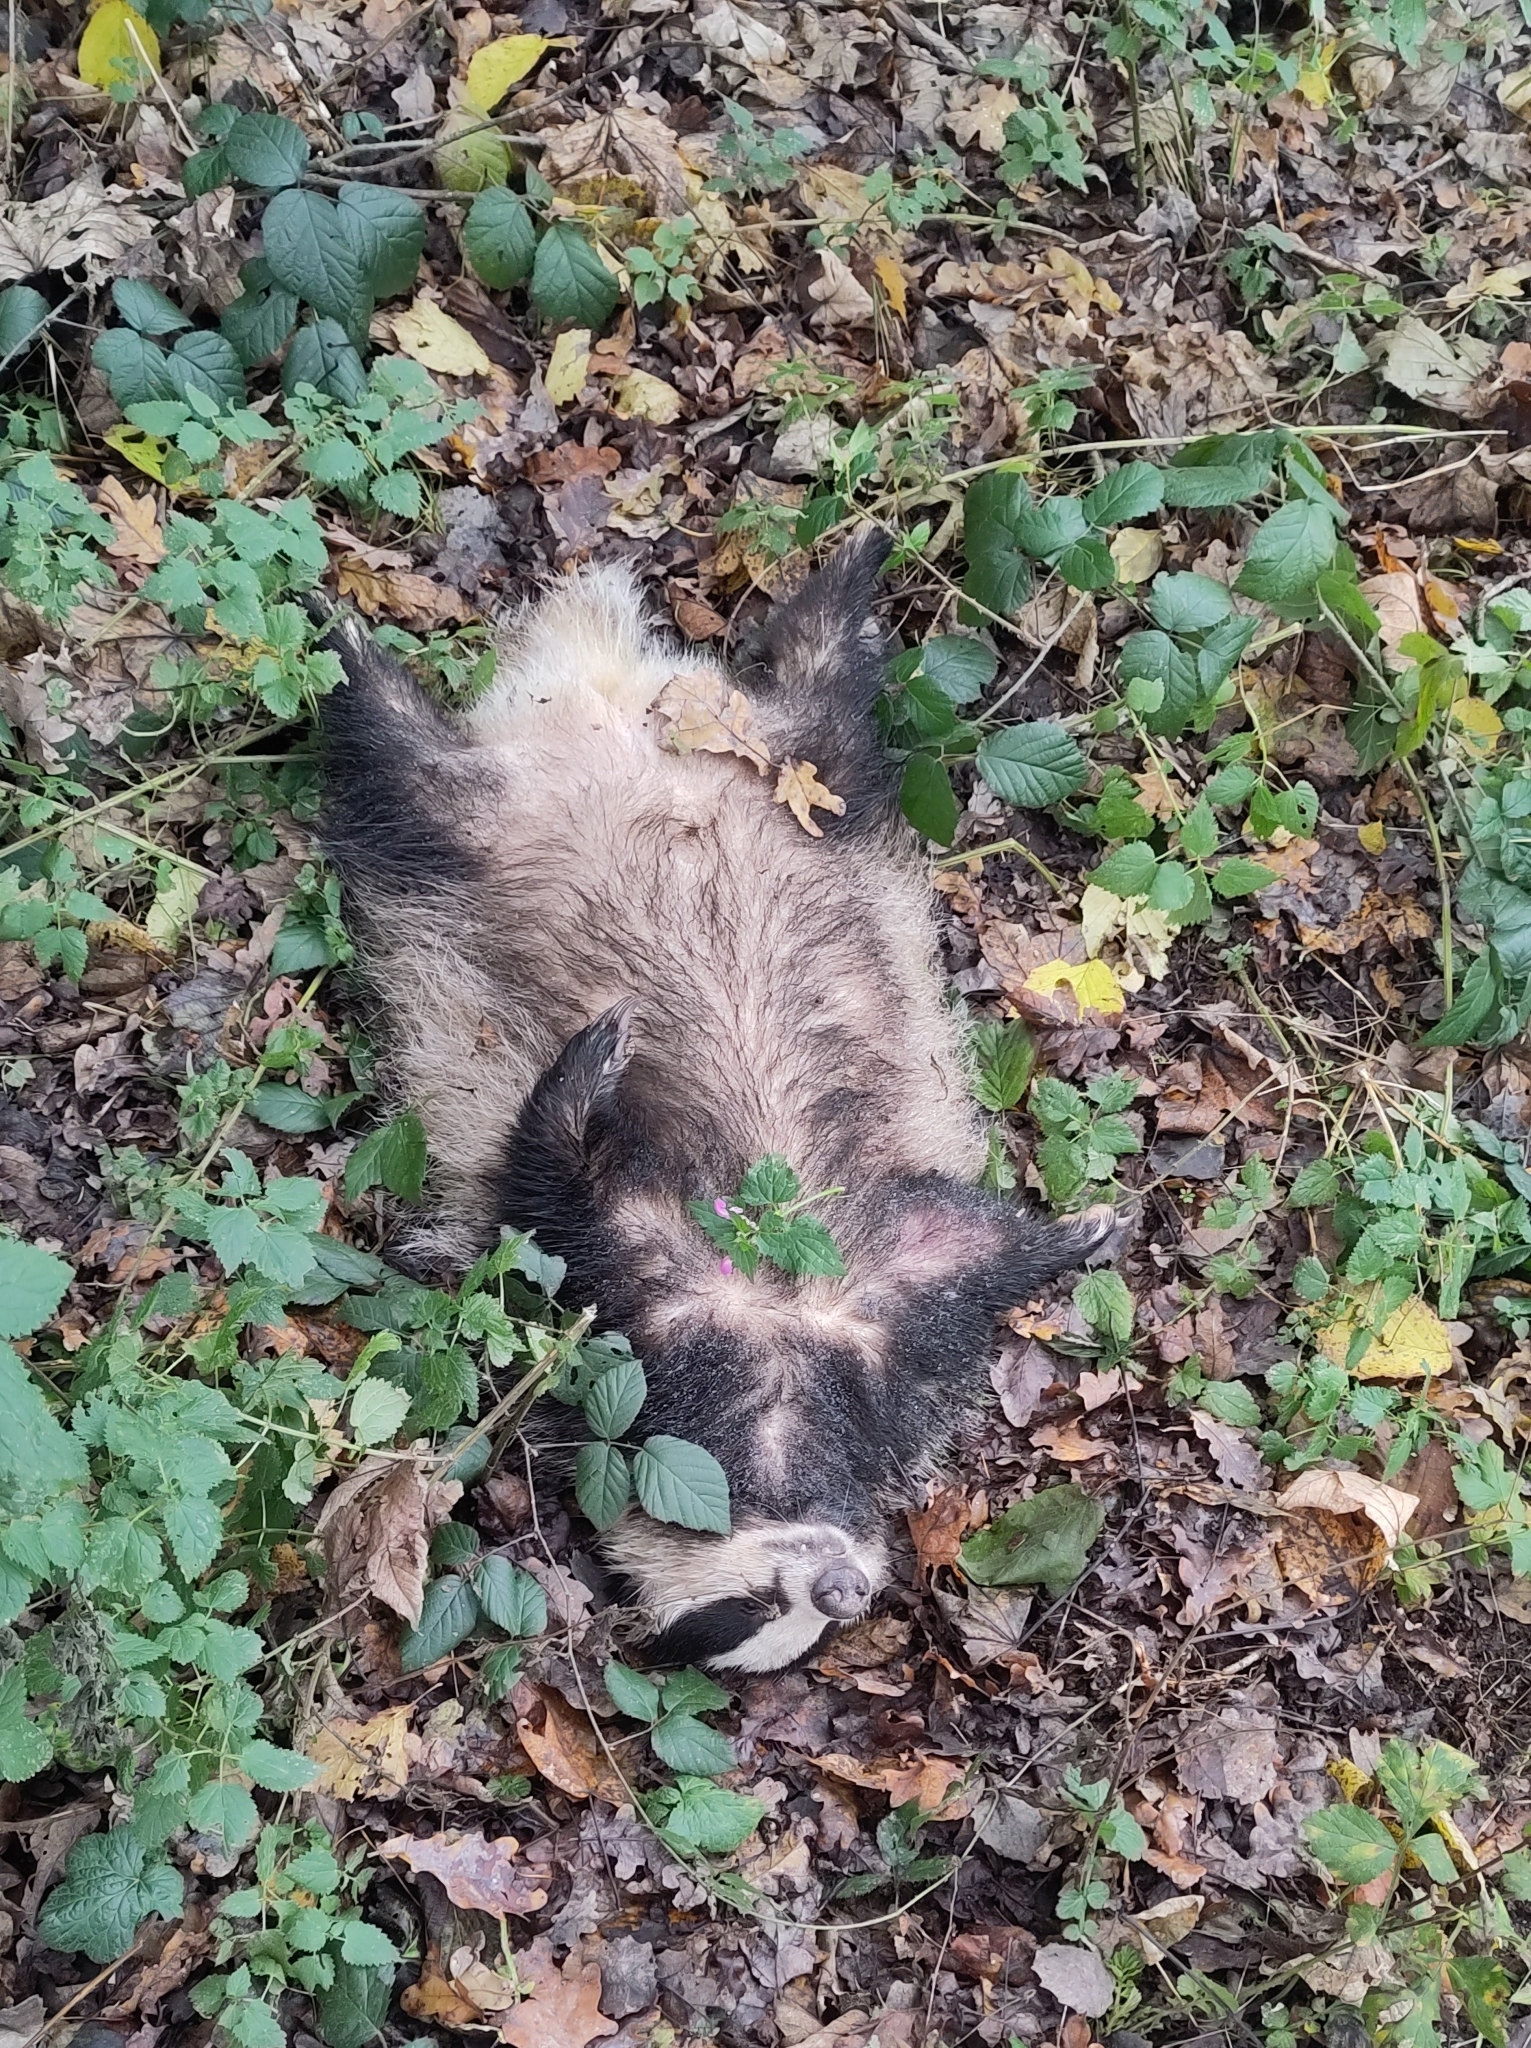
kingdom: Animalia
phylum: Chordata
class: Mammalia
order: Carnivora
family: Mustelidae
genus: Meles
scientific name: Meles meles
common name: Eurasian badger
